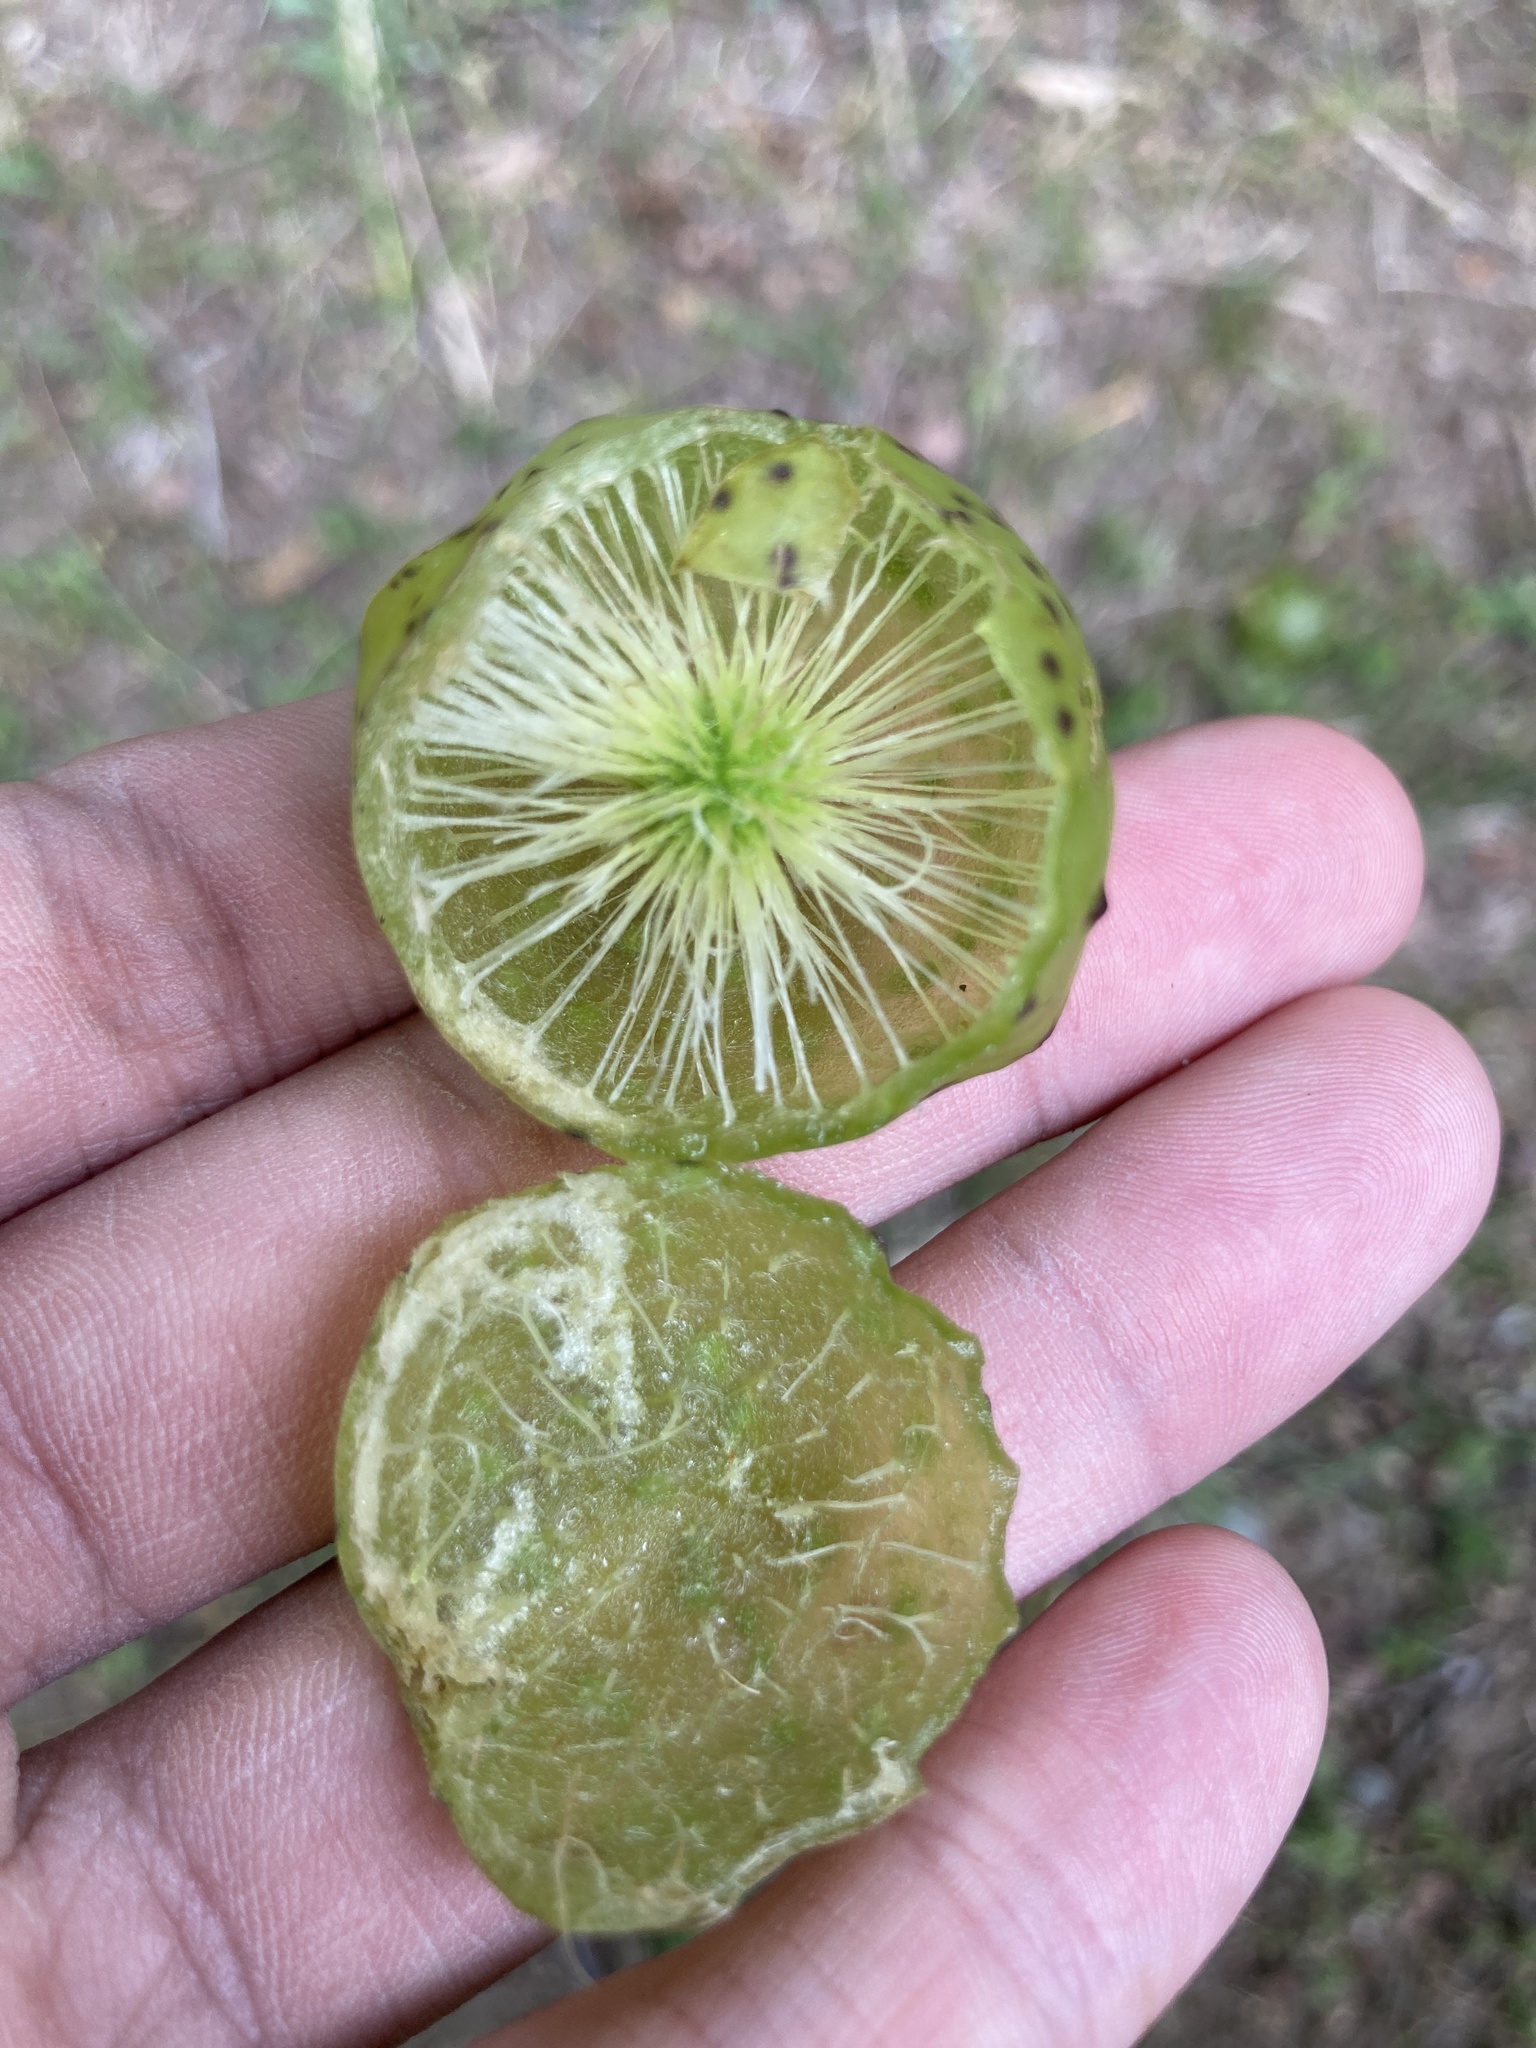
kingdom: Animalia
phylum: Arthropoda
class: Insecta
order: Hymenoptera
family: Cynipidae
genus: Amphibolips
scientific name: Amphibolips
